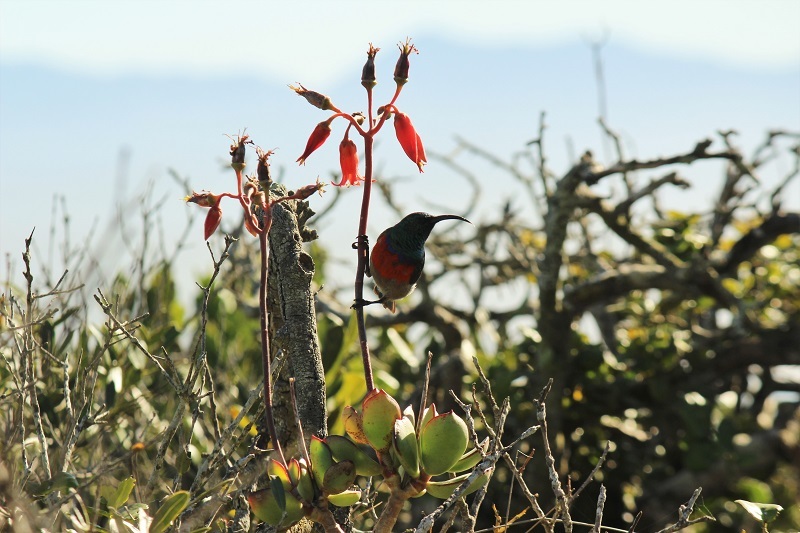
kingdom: Animalia
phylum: Chordata
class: Aves
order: Passeriformes
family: Nectariniidae
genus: Cinnyris
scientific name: Cinnyris afer
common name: Greater double-collared sunbird
